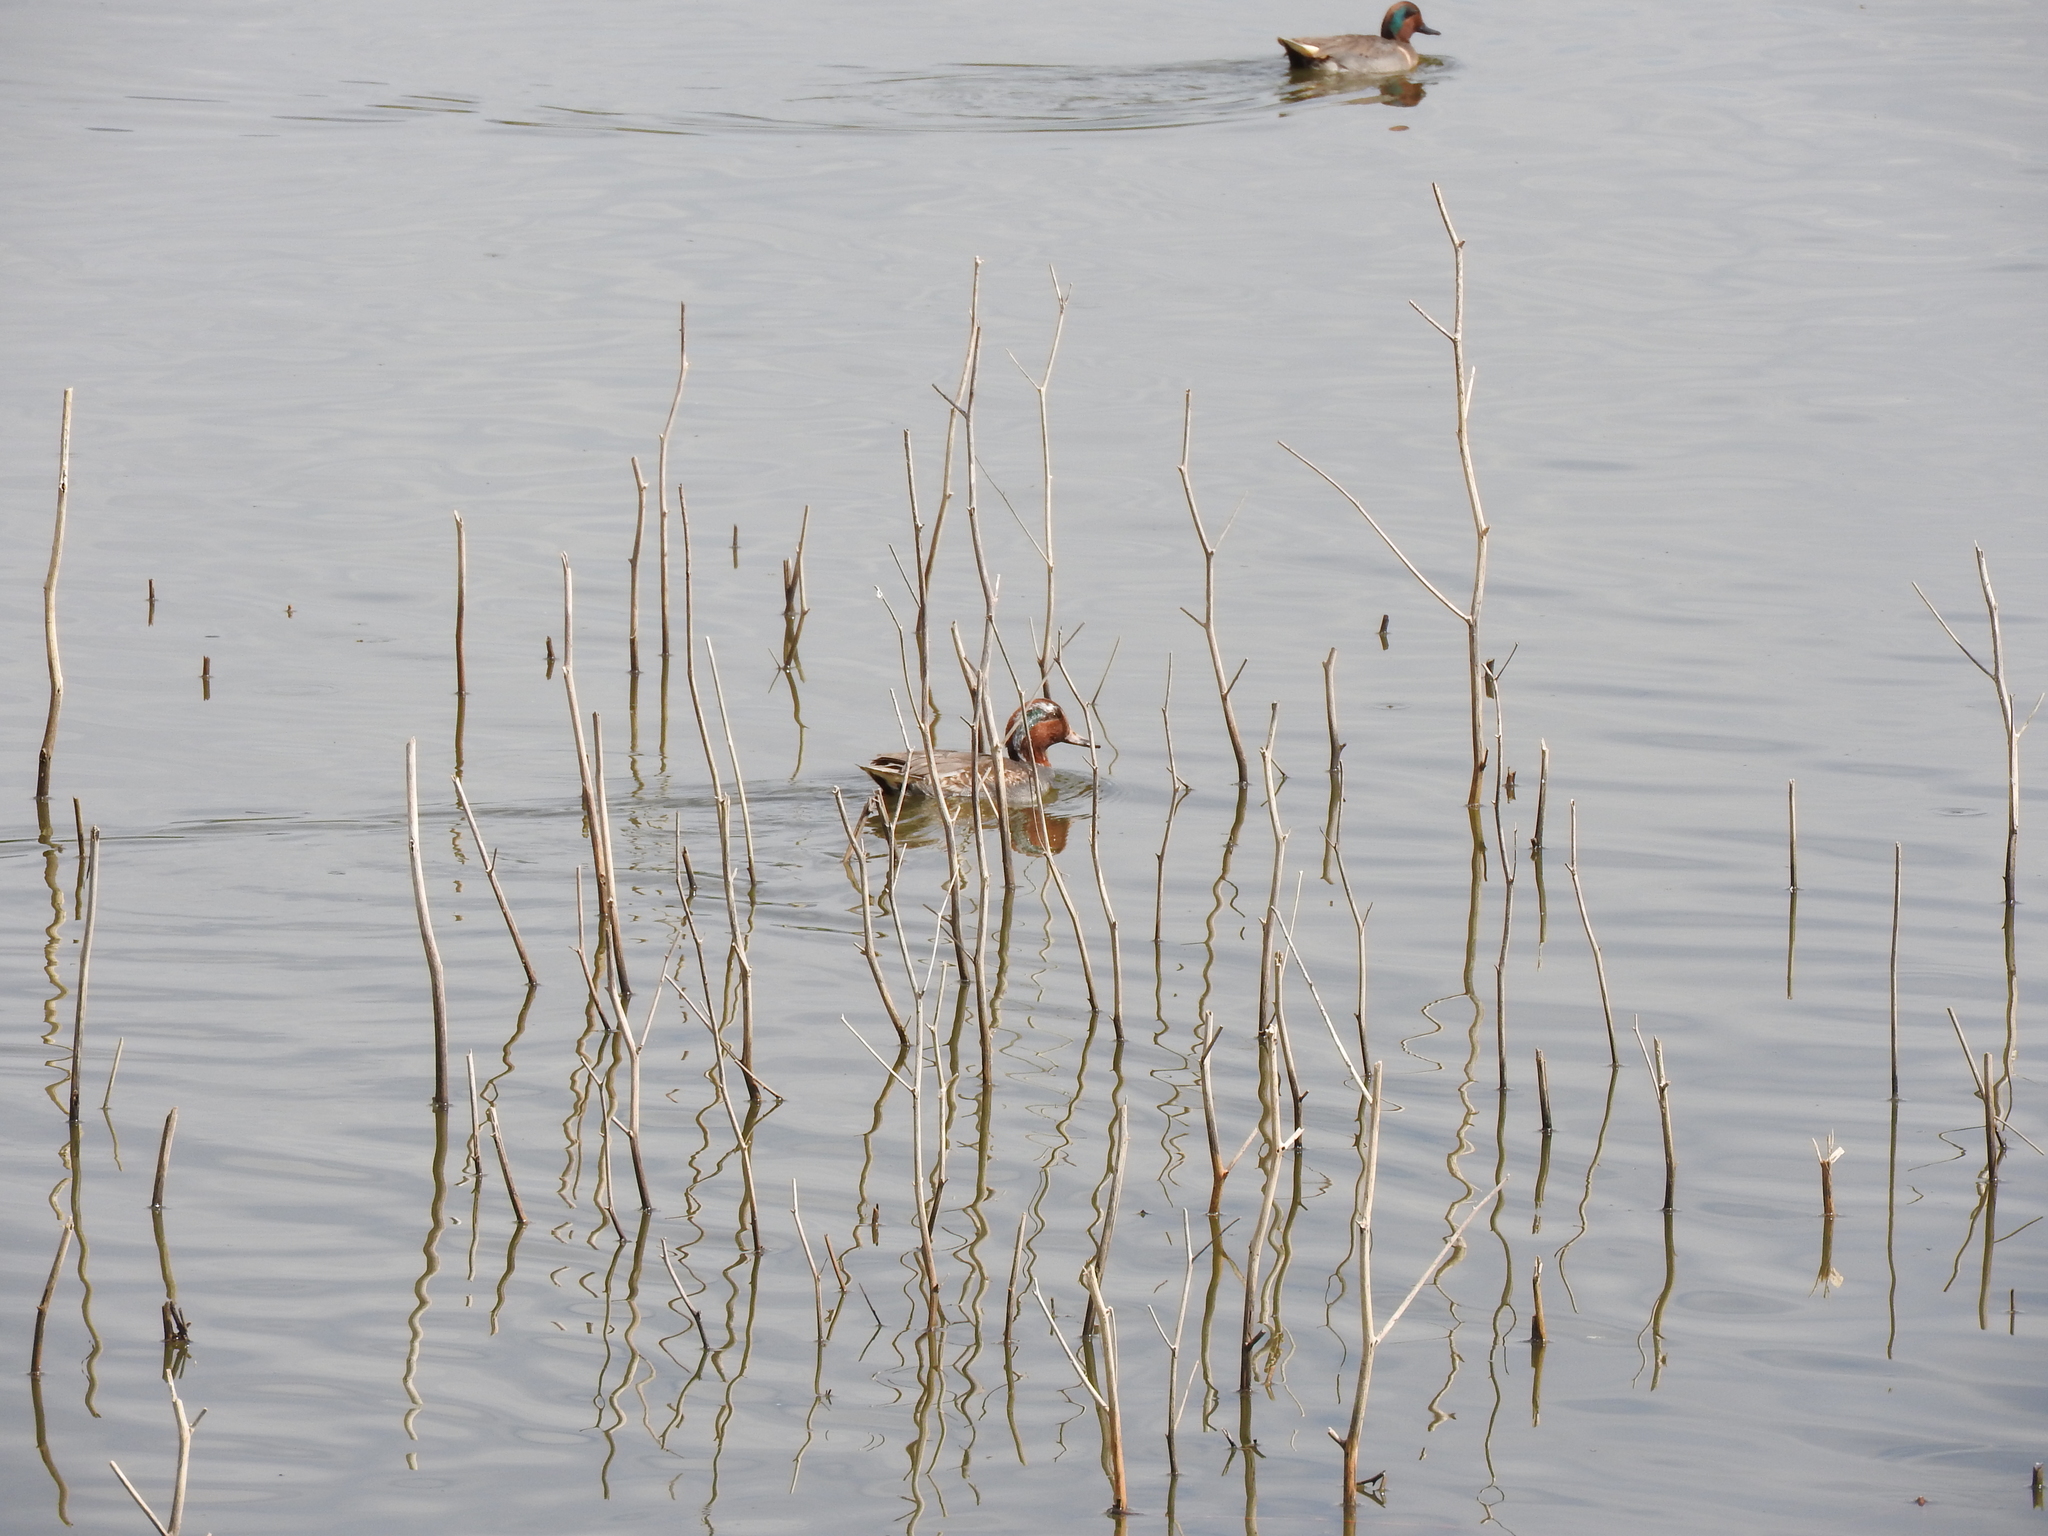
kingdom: Animalia
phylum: Chordata
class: Aves
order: Anseriformes
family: Anatidae
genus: Anas
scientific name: Anas crecca
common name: Eurasian teal
